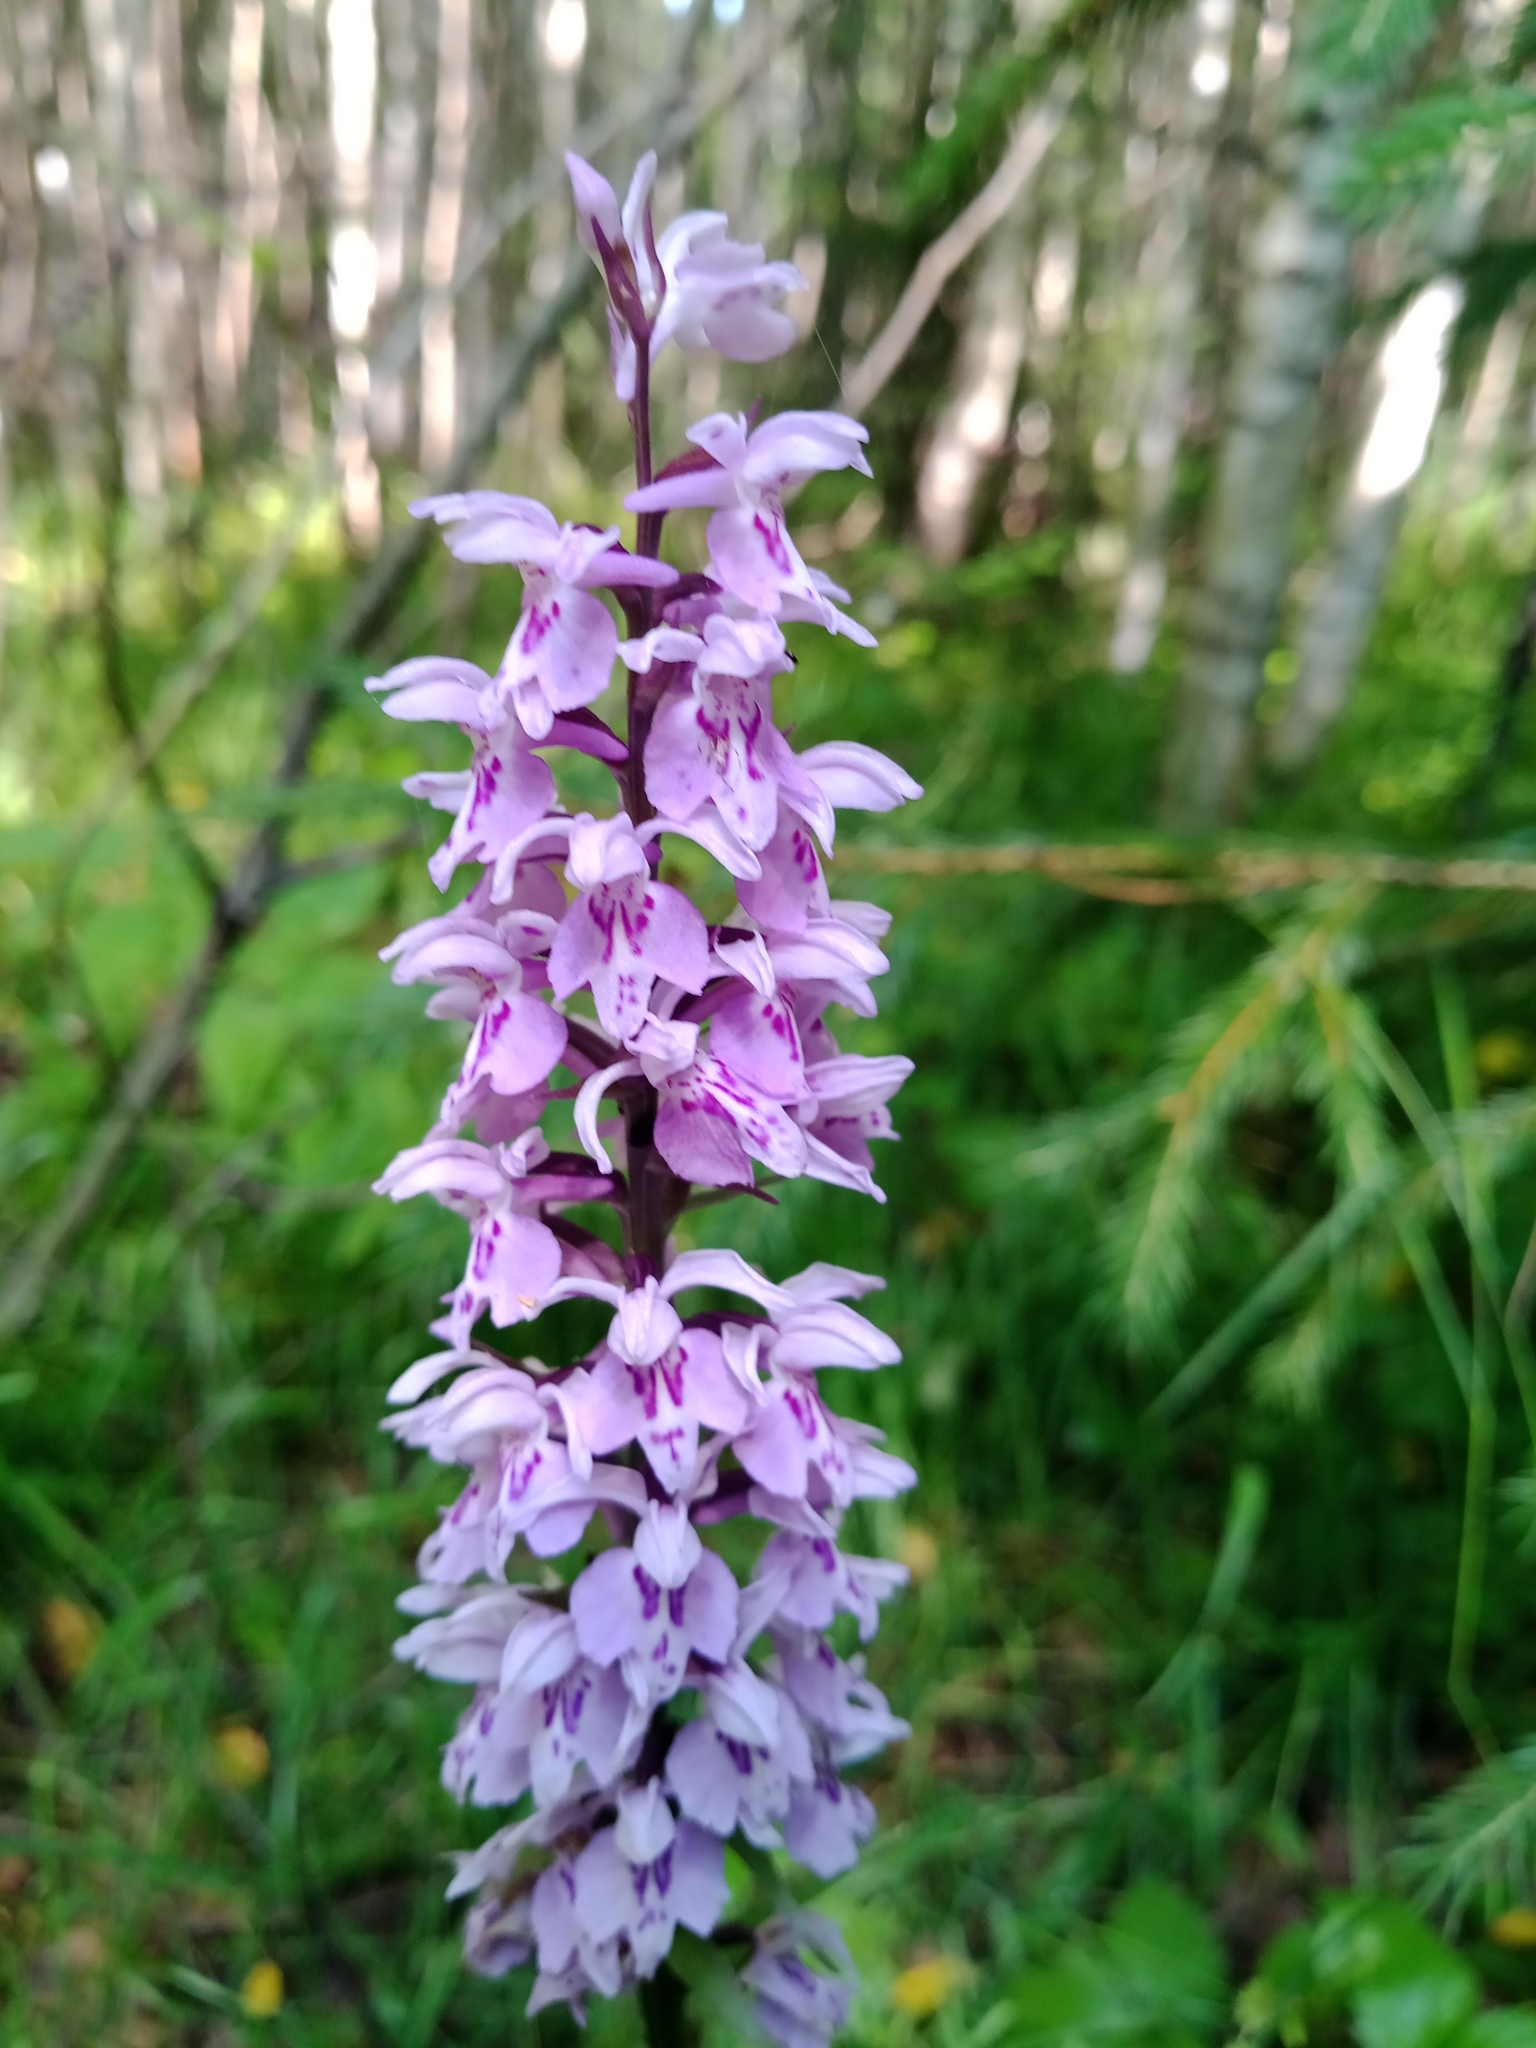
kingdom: Plantae
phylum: Tracheophyta
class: Liliopsida
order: Asparagales
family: Orchidaceae
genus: Dactylorhiza
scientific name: Dactylorhiza maculata
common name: Heath spotted-orchid
